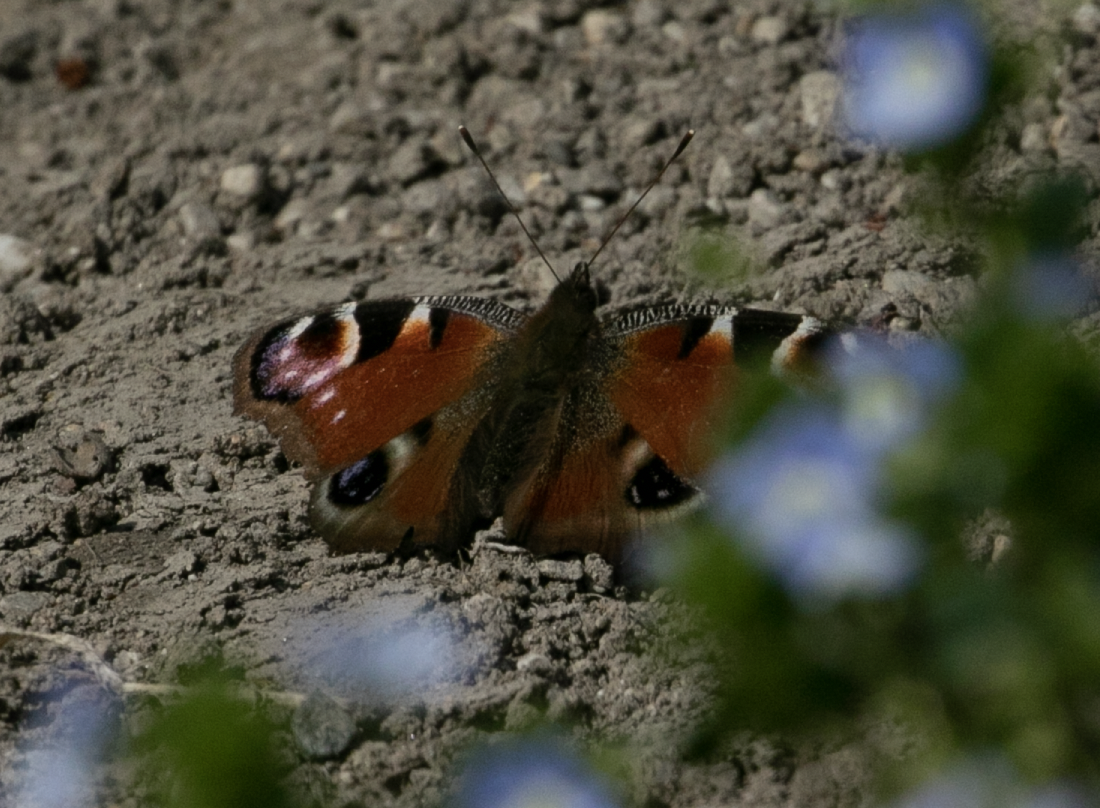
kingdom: Animalia
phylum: Arthropoda
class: Insecta
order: Lepidoptera
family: Nymphalidae
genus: Aglais
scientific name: Aglais io
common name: Peacock
